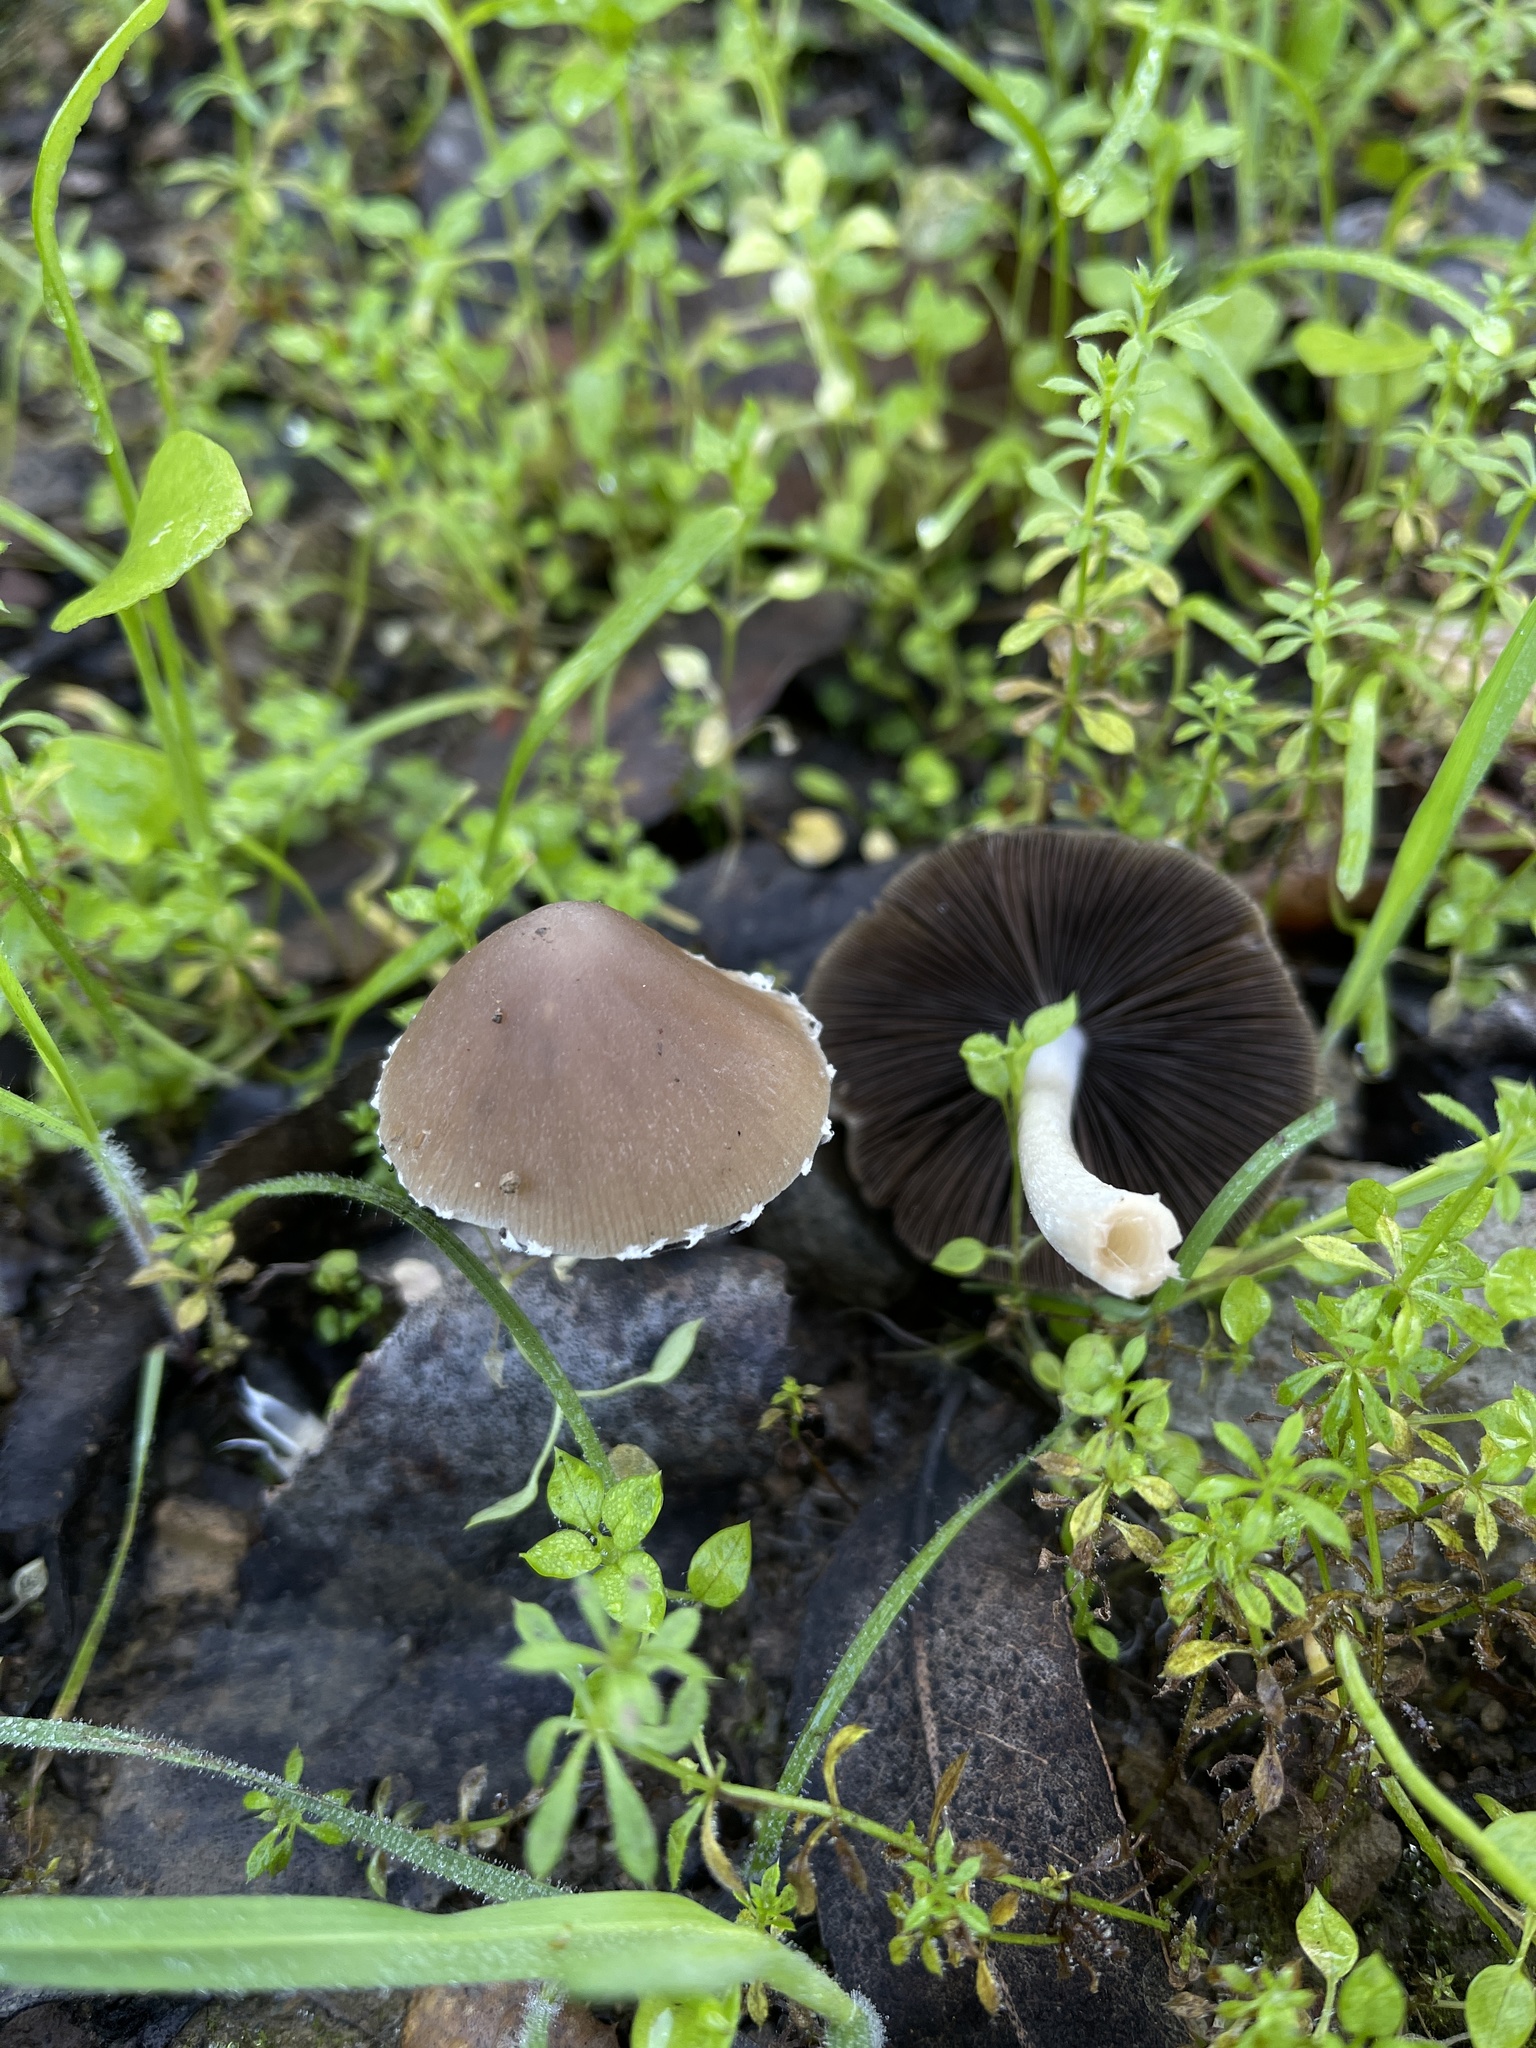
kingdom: Fungi
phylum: Basidiomycota
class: Agaricomycetes
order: Agaricales
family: Psathyrellaceae
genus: Psathyrella
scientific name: Psathyrella longipes
